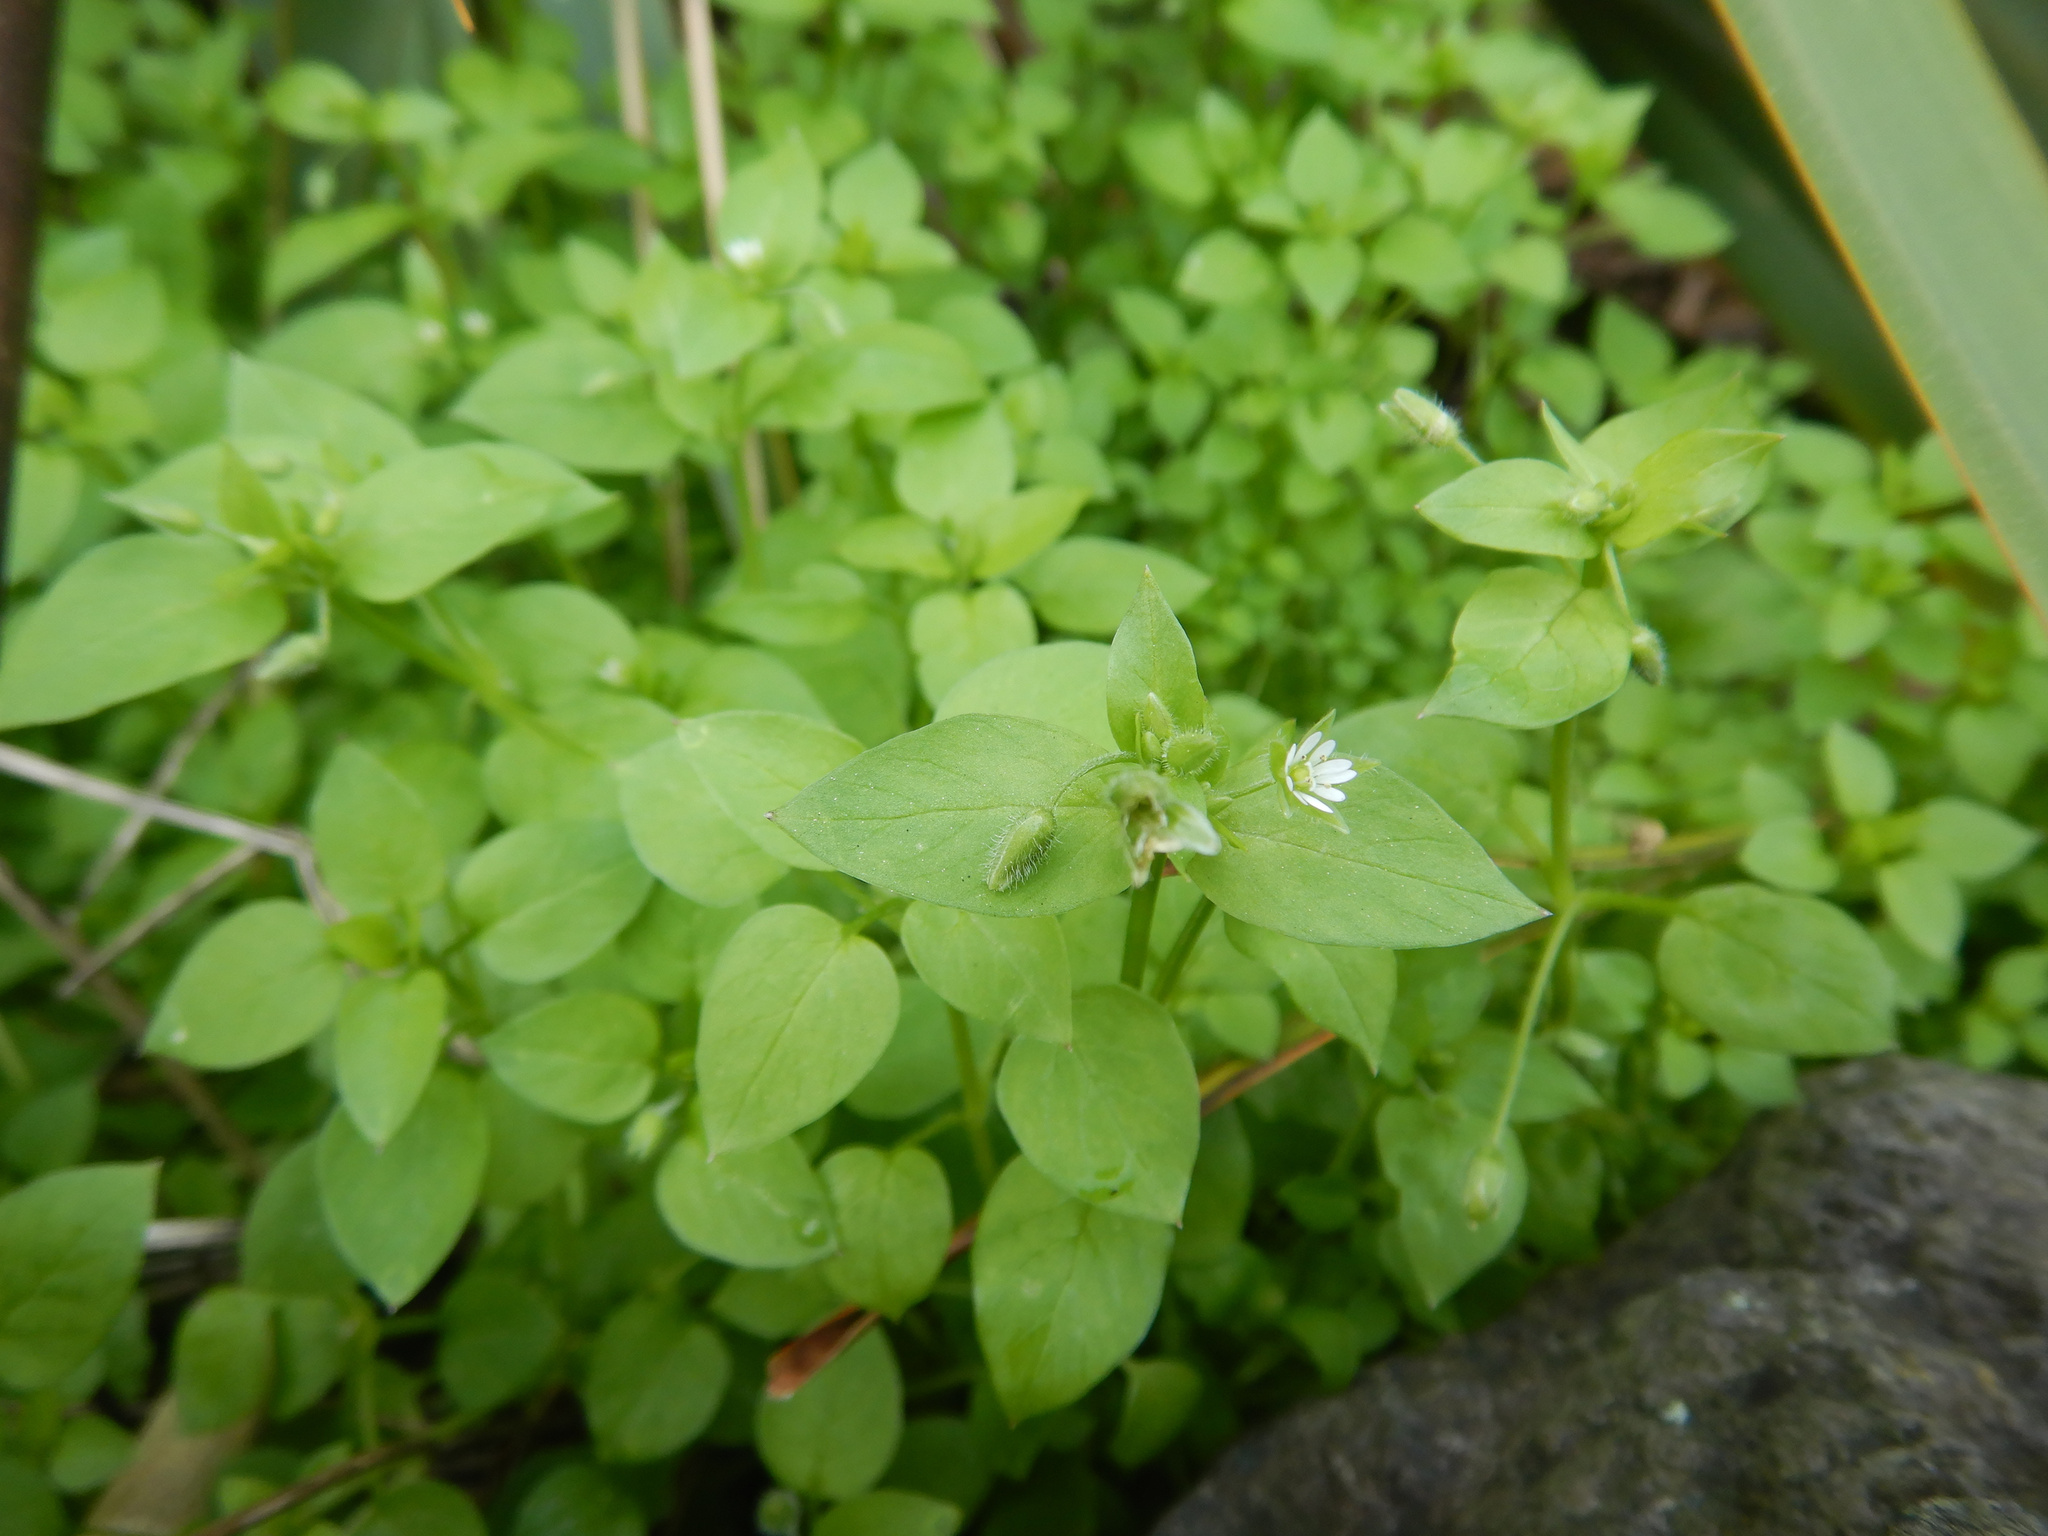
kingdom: Plantae
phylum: Tracheophyta
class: Magnoliopsida
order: Caryophyllales
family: Caryophyllaceae
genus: Stellaria
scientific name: Stellaria media
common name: Common chickweed
